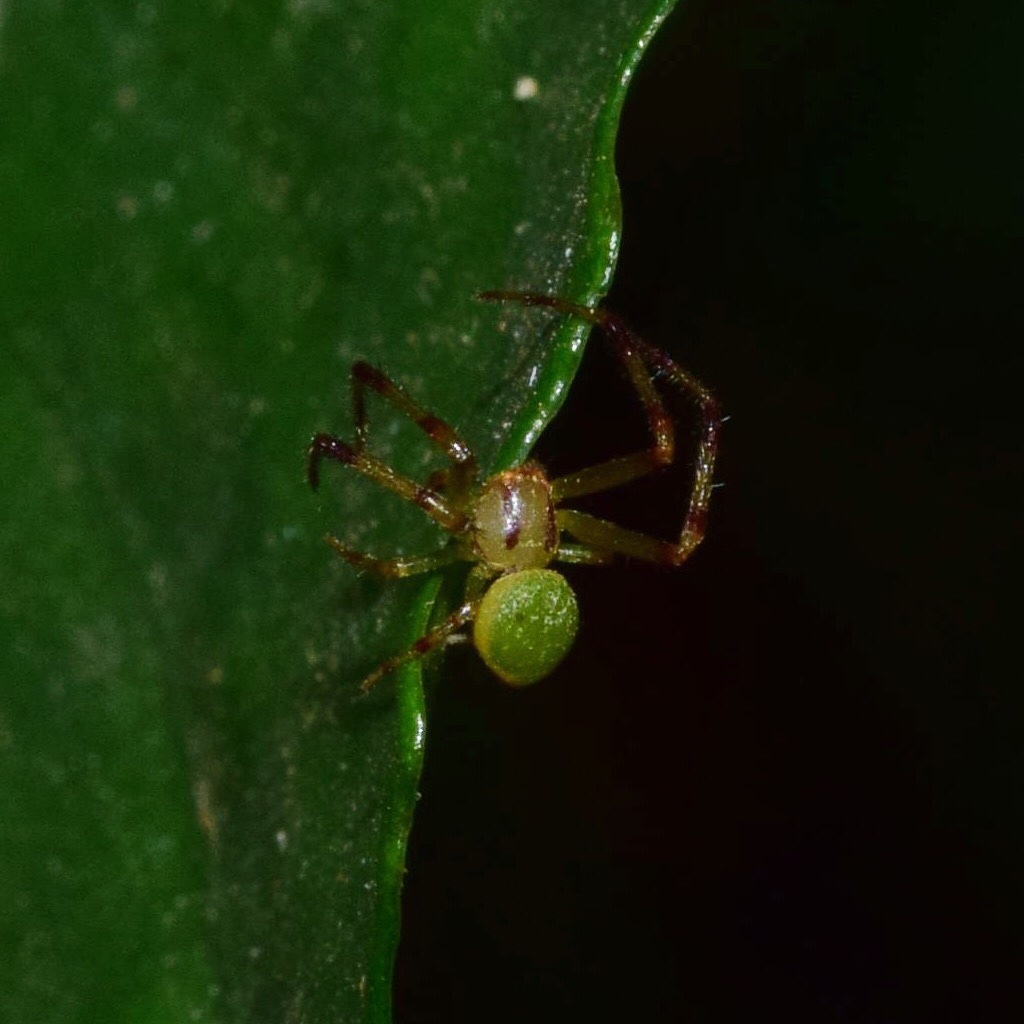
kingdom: Animalia
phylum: Arthropoda
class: Arachnida
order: Araneae
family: Thomisidae
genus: Ansiea
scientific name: Ansiea tuckeri
